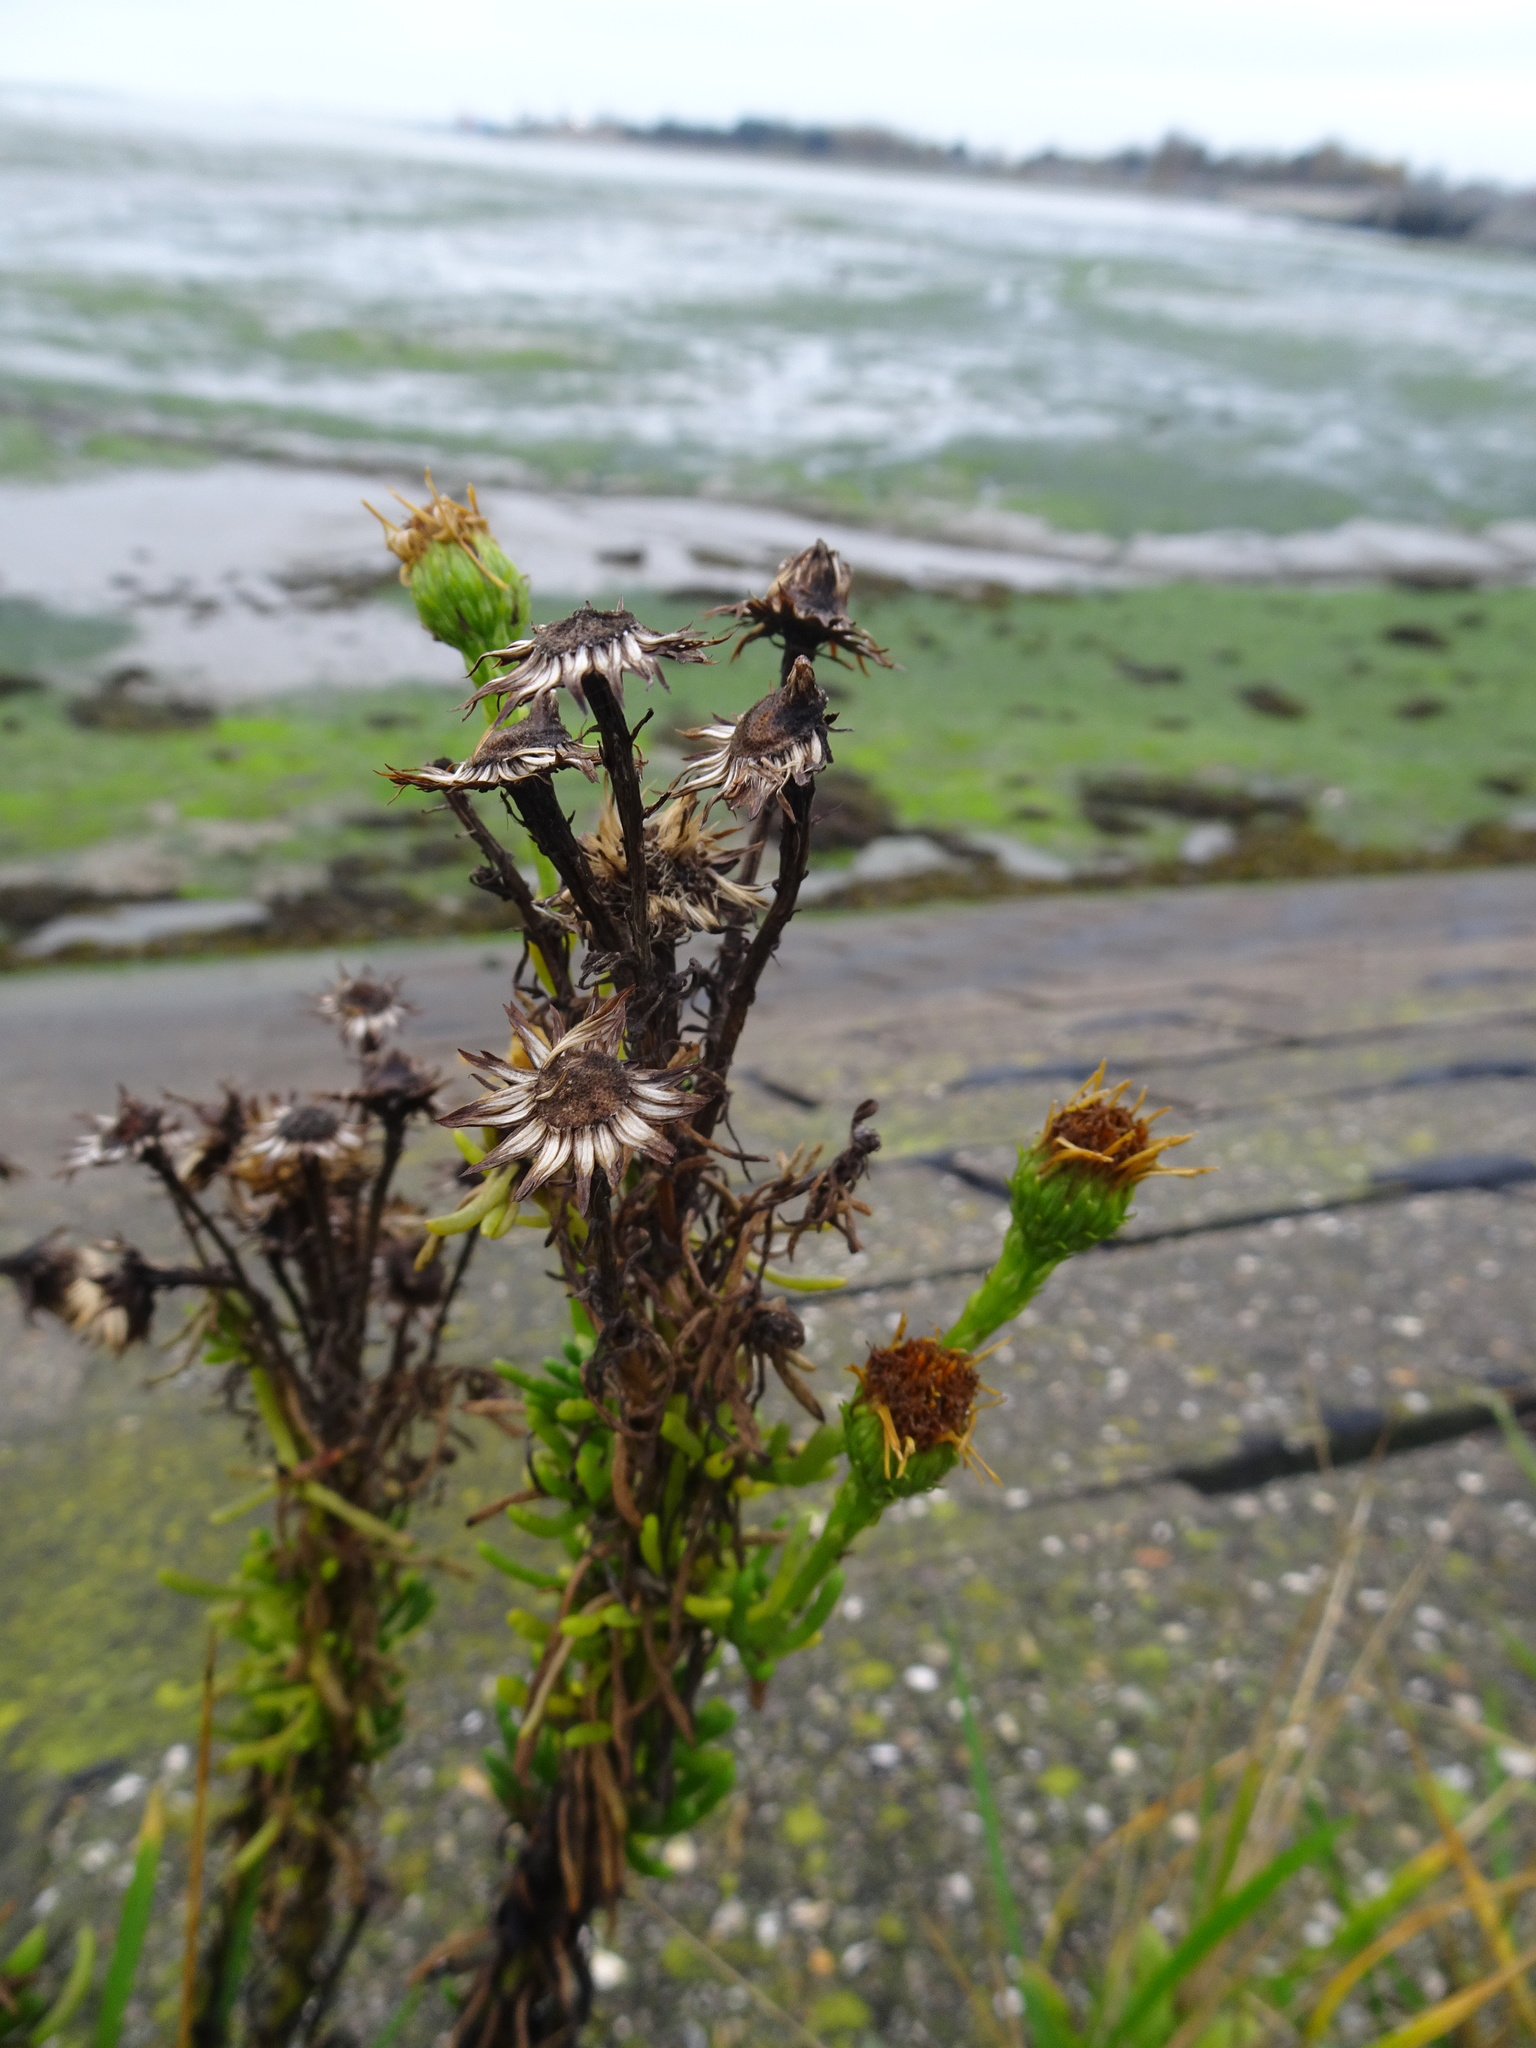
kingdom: Plantae
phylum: Tracheophyta
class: Magnoliopsida
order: Asterales
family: Asteraceae
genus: Limbarda
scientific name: Limbarda crithmoides
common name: Golden samphire
